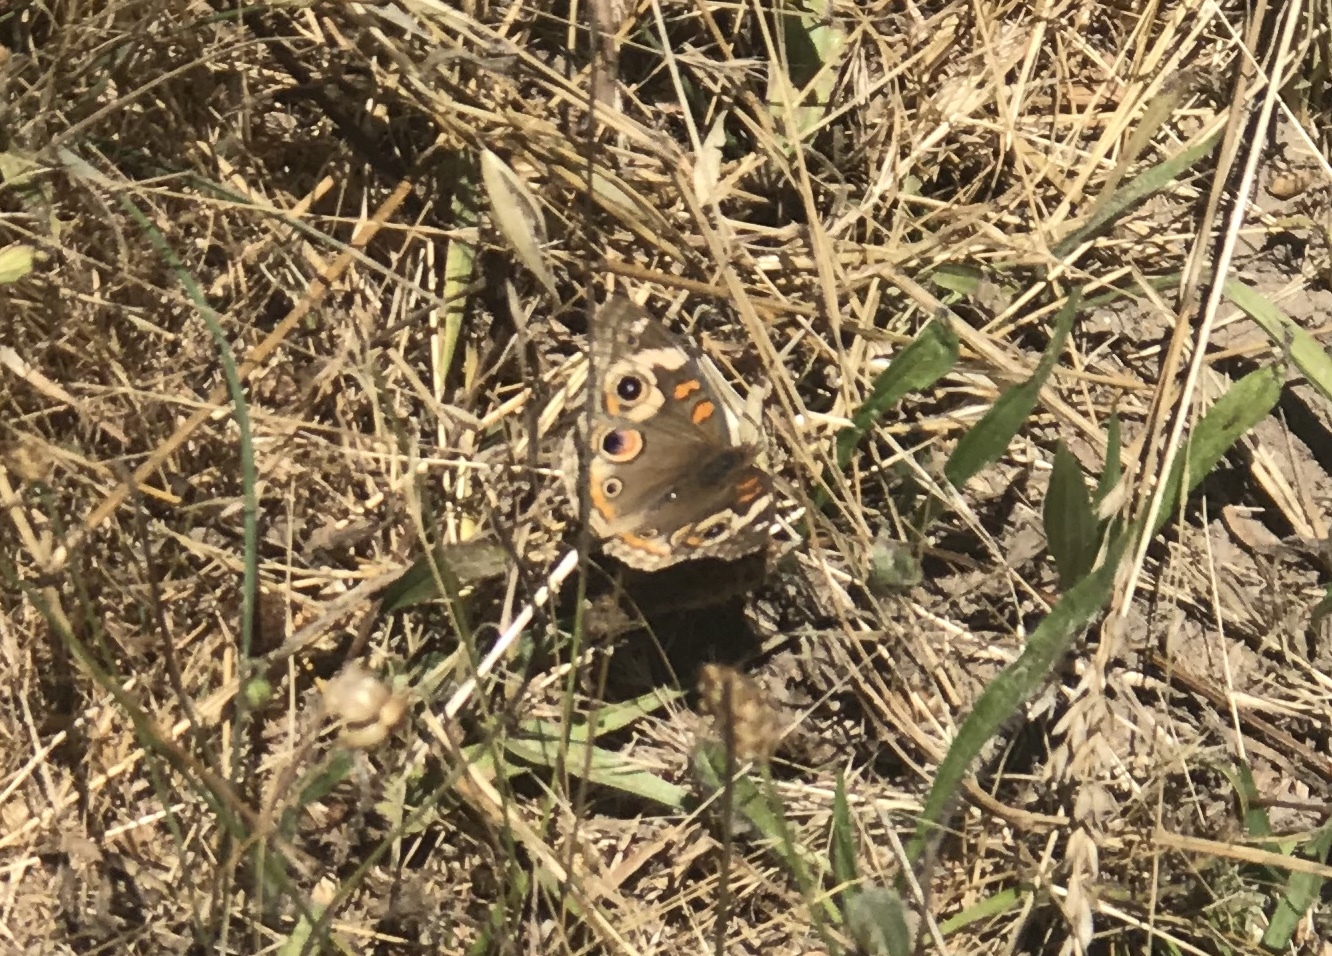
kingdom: Animalia
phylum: Arthropoda
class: Insecta
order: Lepidoptera
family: Nymphalidae
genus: Junonia
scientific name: Junonia grisea
